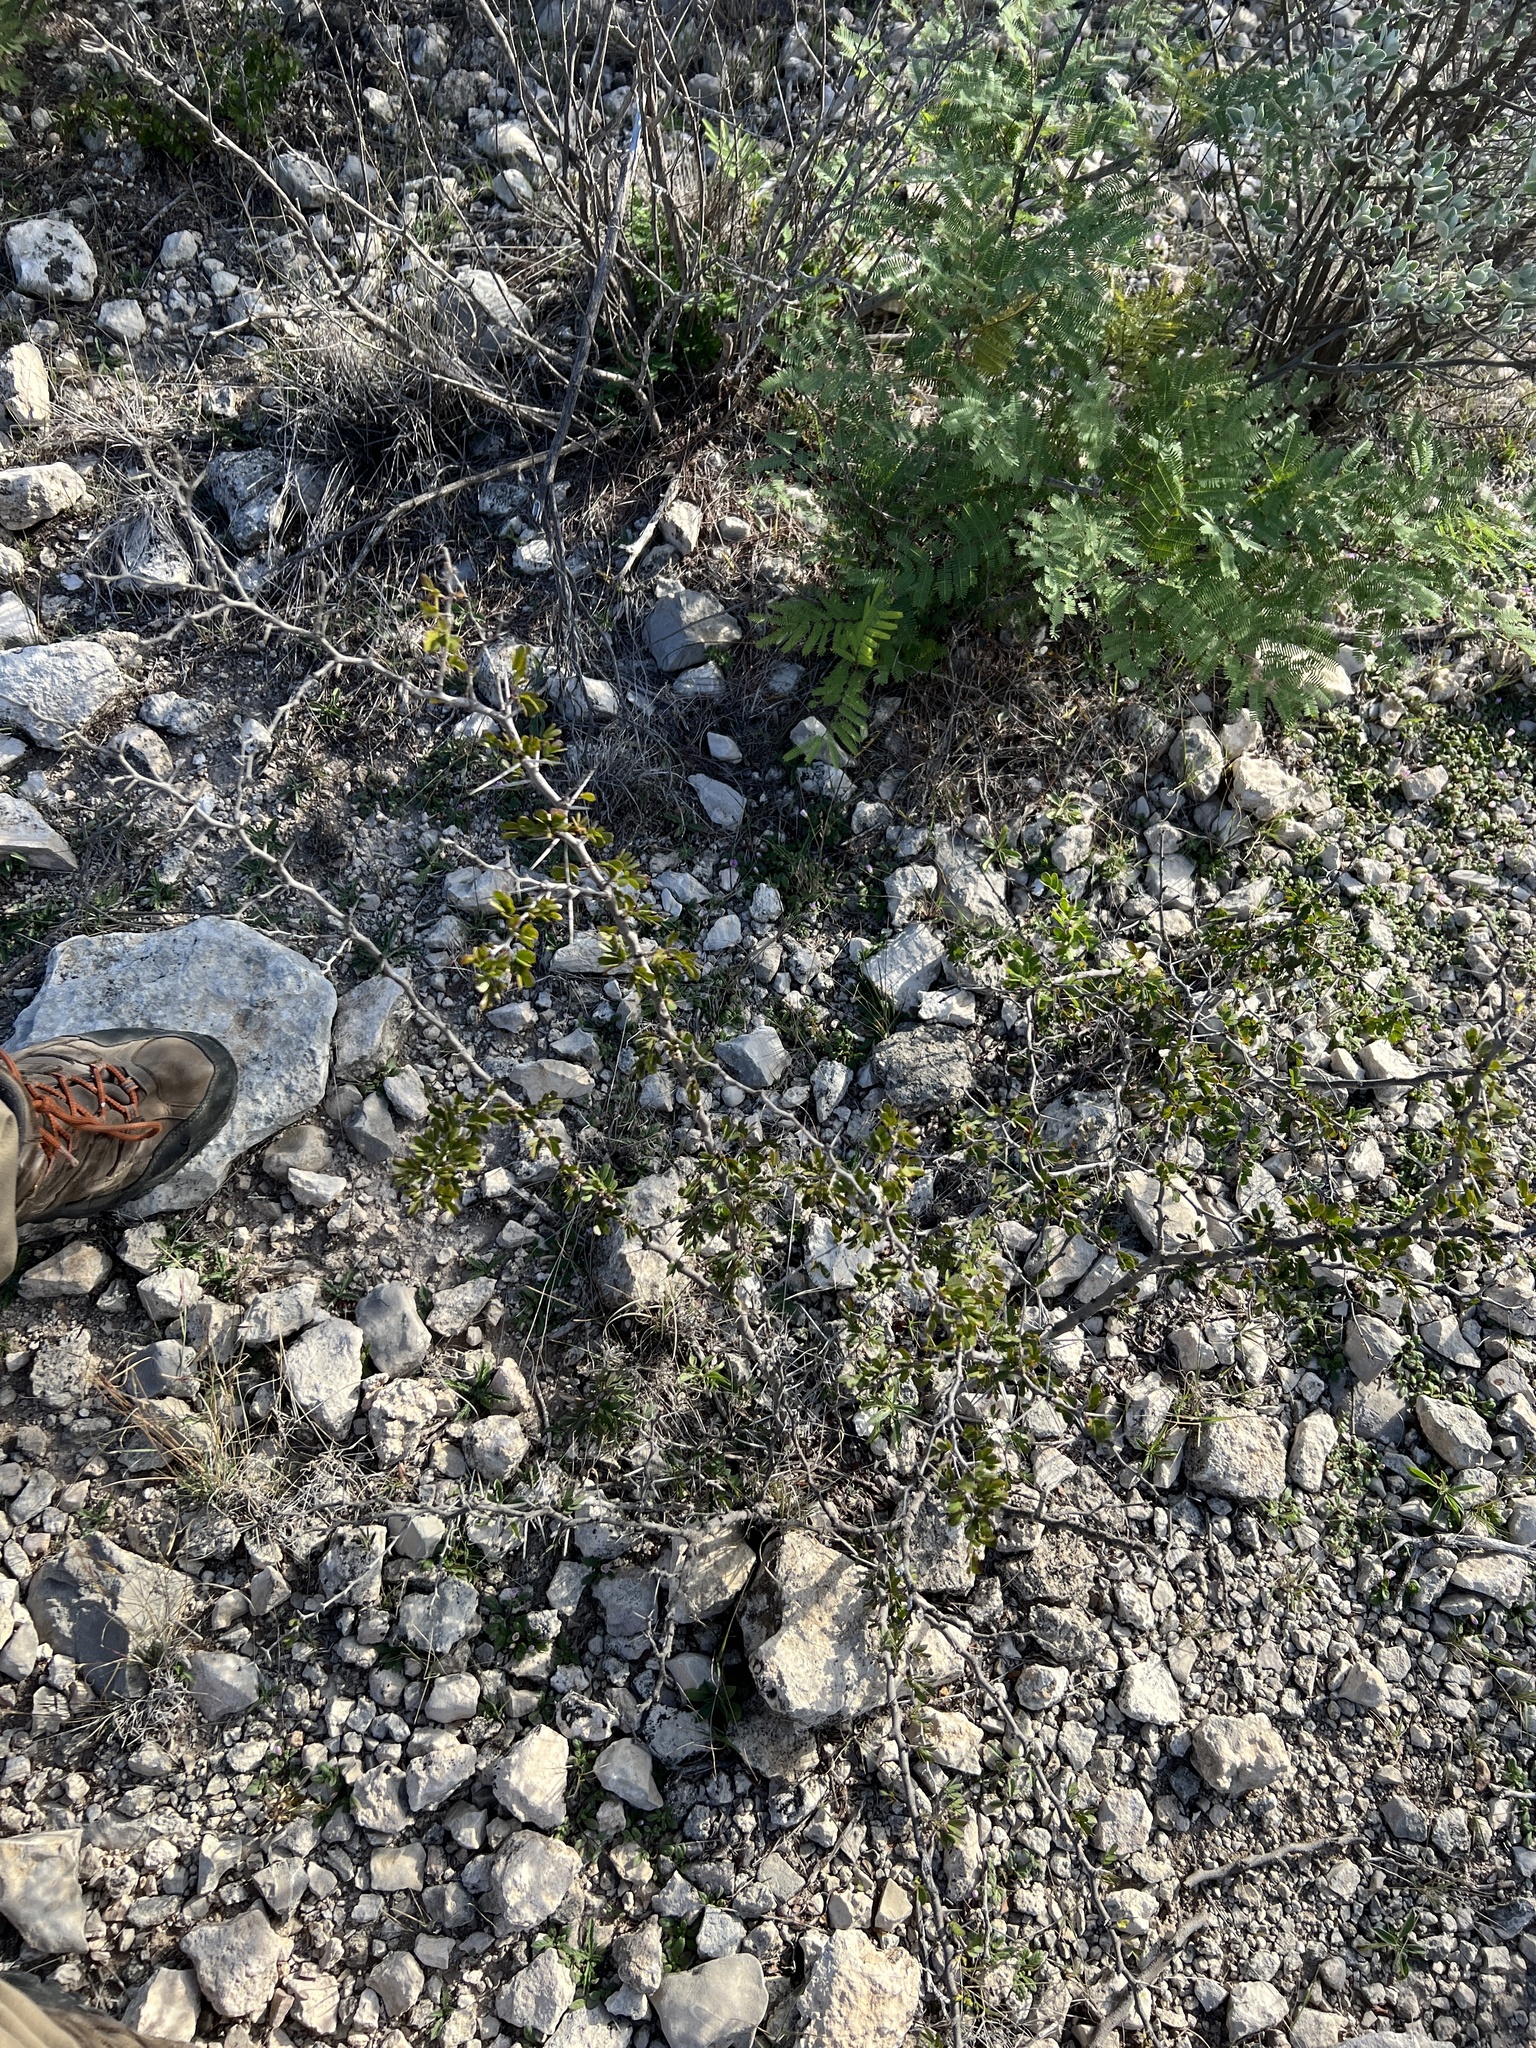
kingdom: Plantae
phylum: Tracheophyta
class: Magnoliopsida
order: Fabales
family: Fabaceae
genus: Vachellia
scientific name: Vachellia rigidula
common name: Blackbrush
